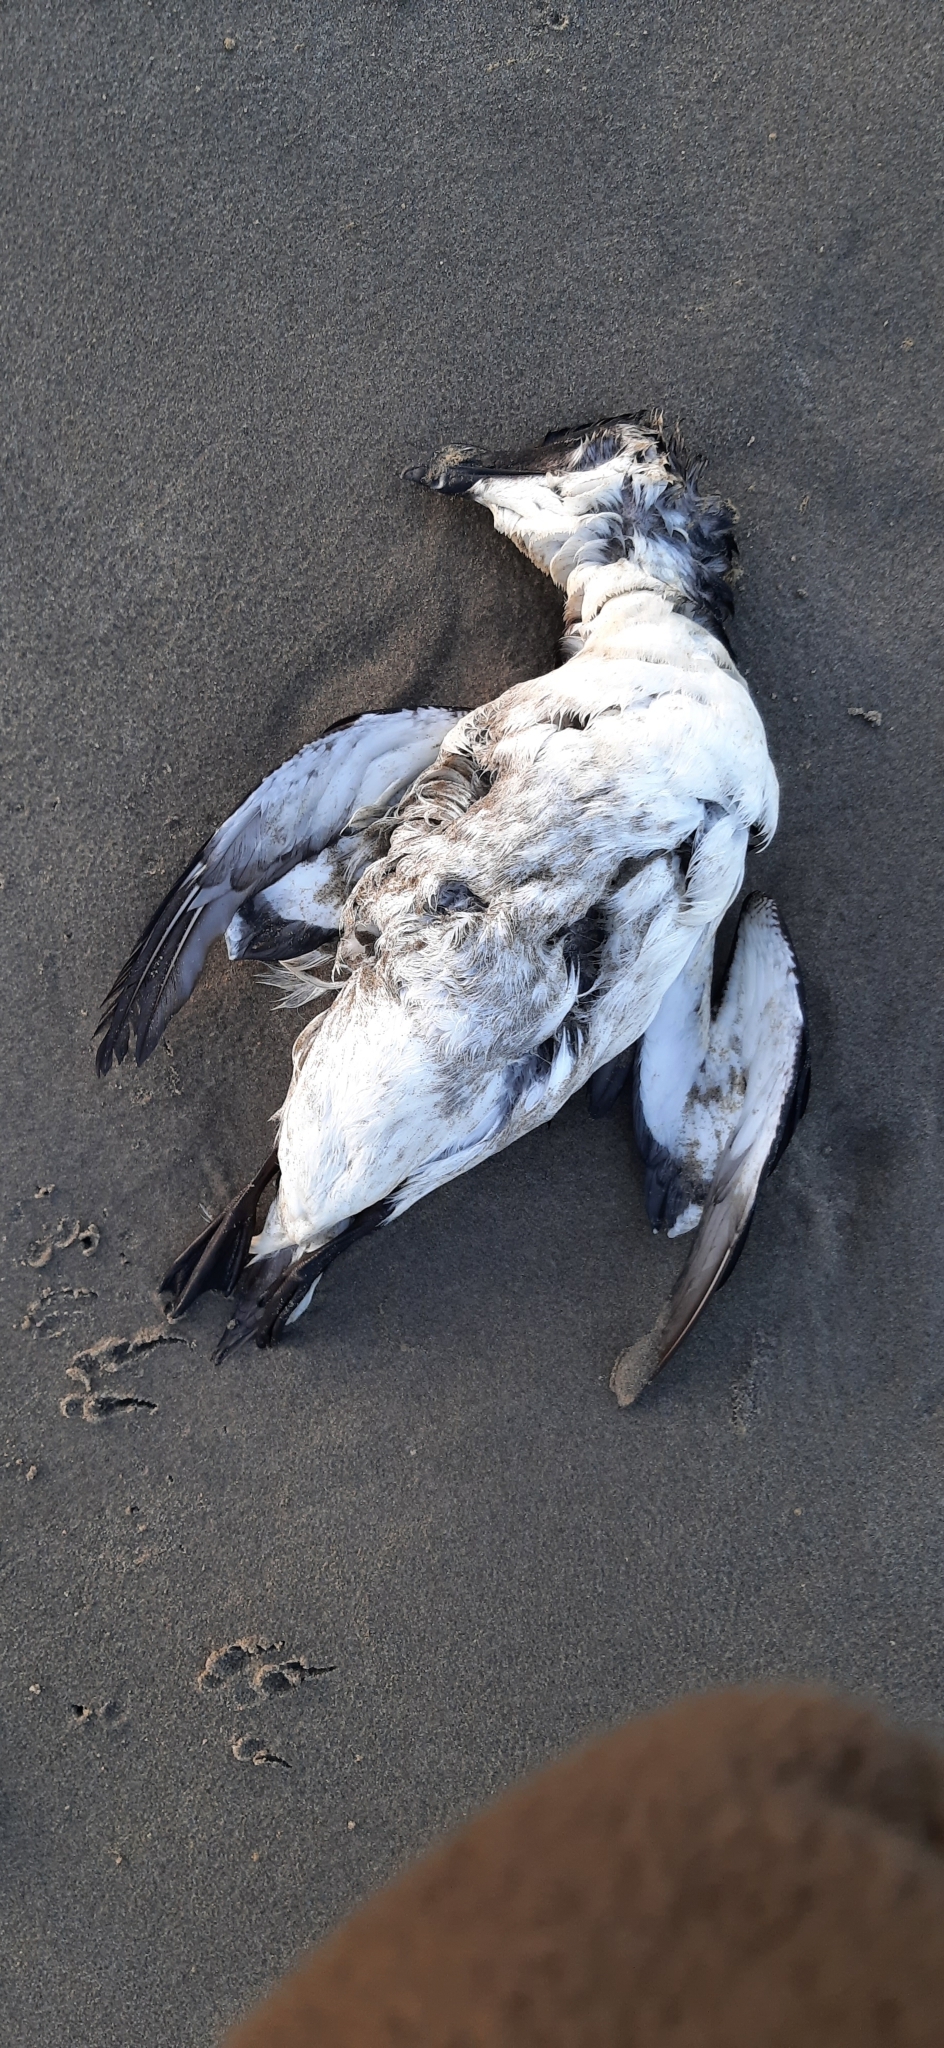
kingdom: Animalia
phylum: Chordata
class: Aves
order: Charadriiformes
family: Alcidae
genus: Alca
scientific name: Alca torda
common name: Razorbill
